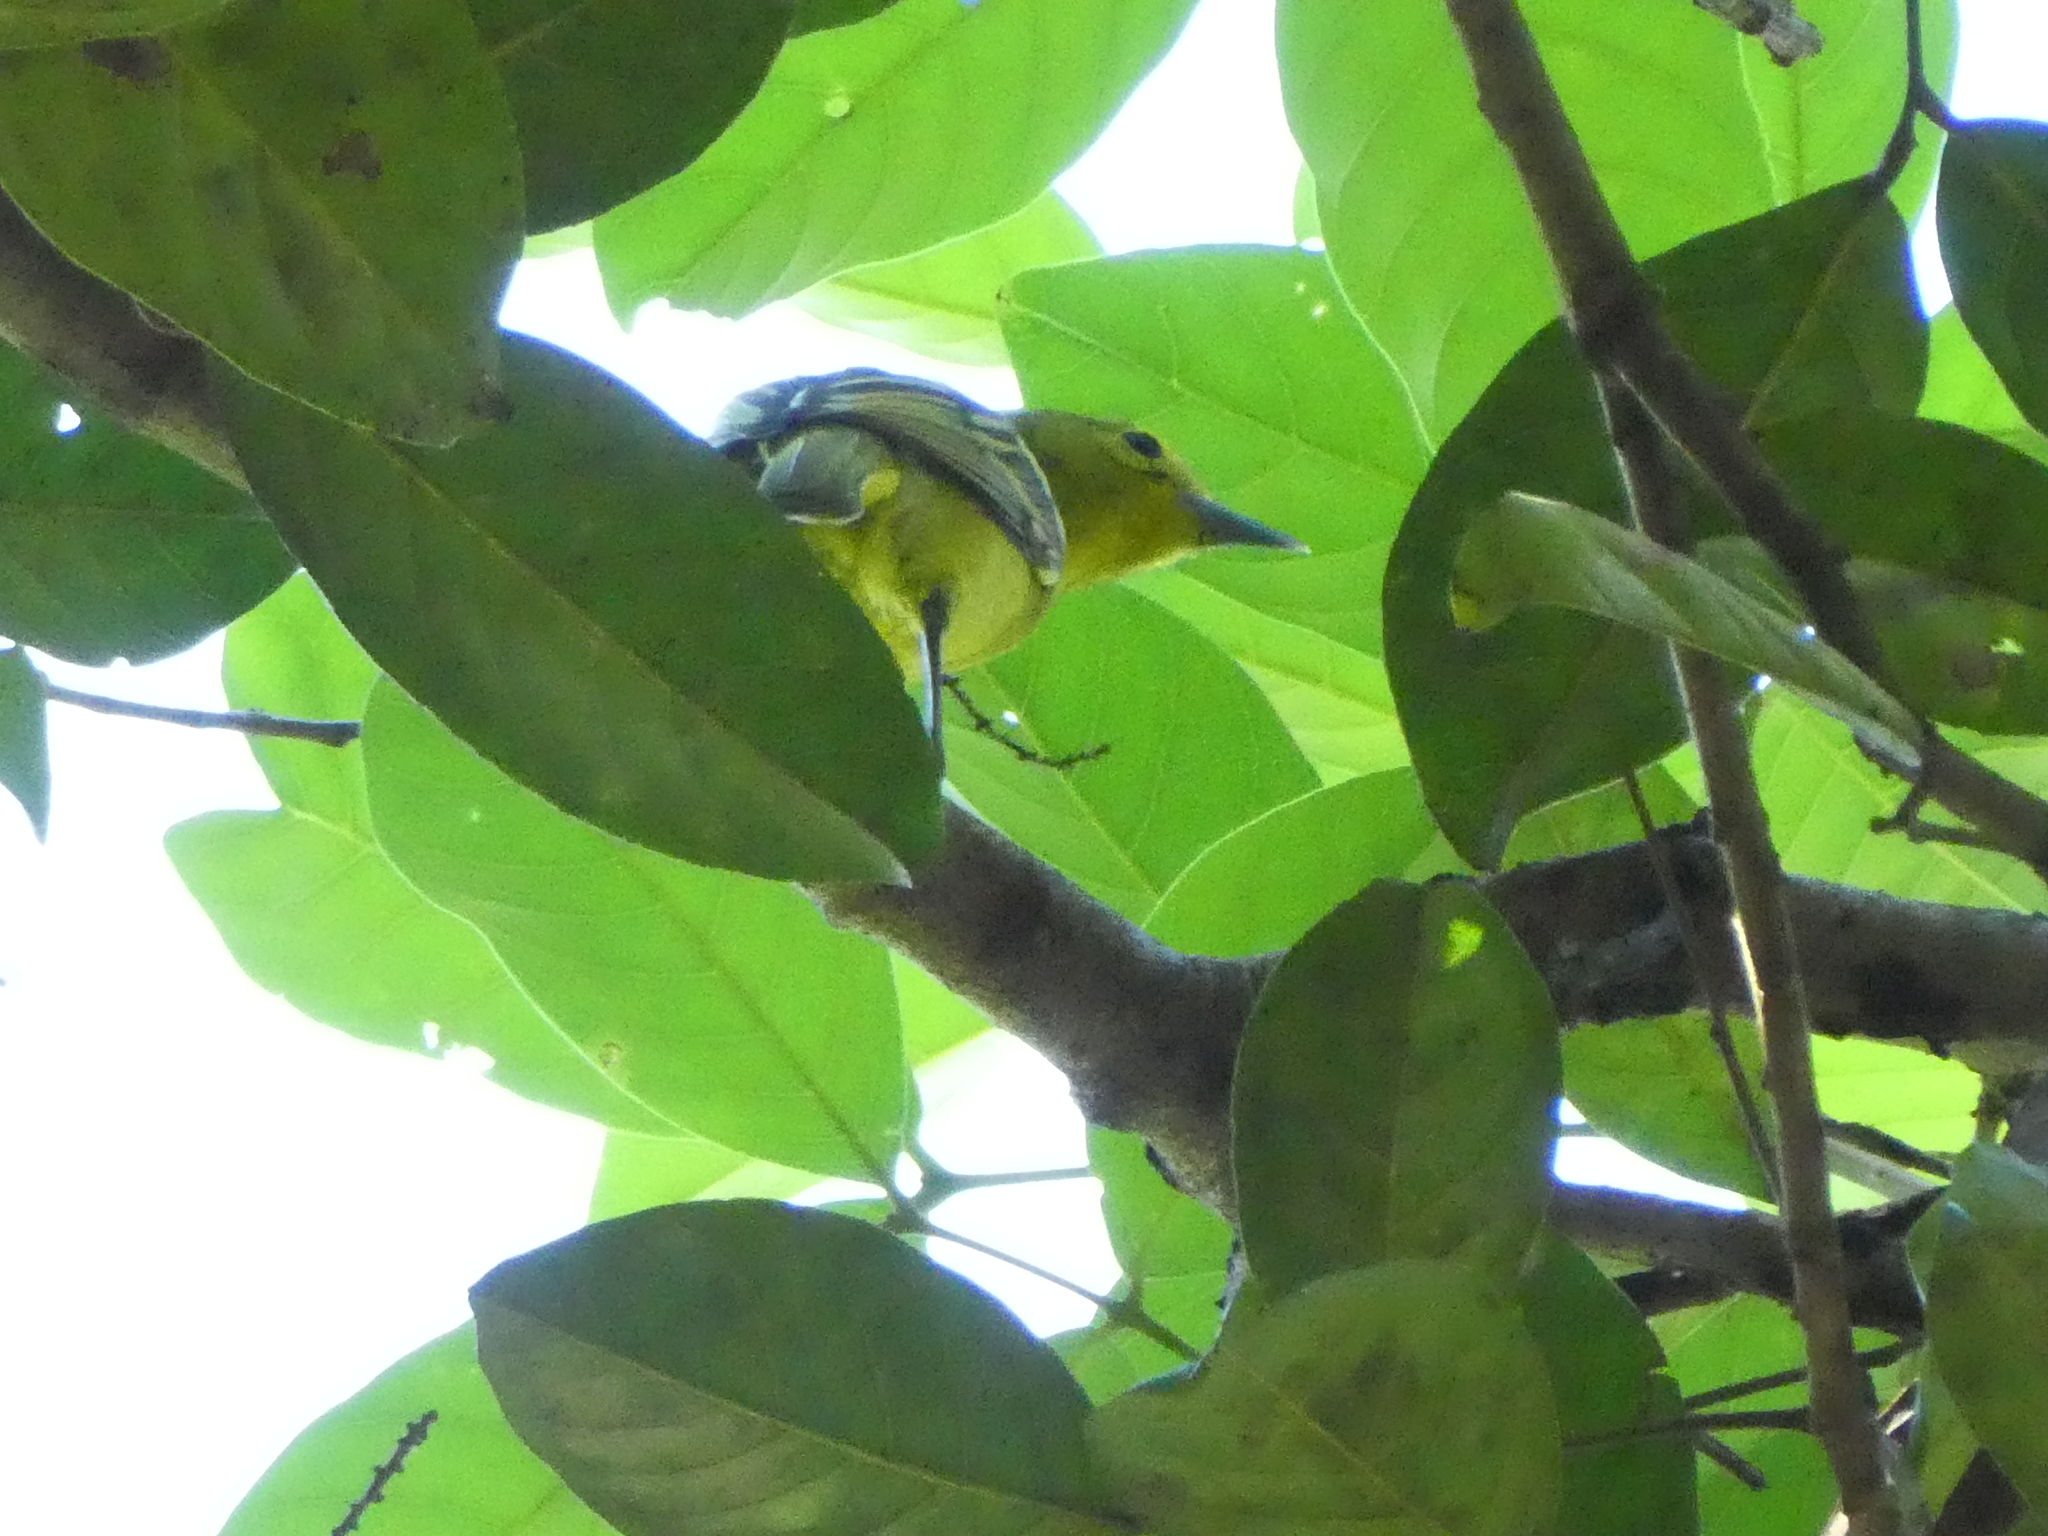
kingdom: Animalia
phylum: Chordata
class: Aves
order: Passeriformes
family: Aegithinidae
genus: Aegithina
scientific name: Aegithina tiphia
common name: Common iora
